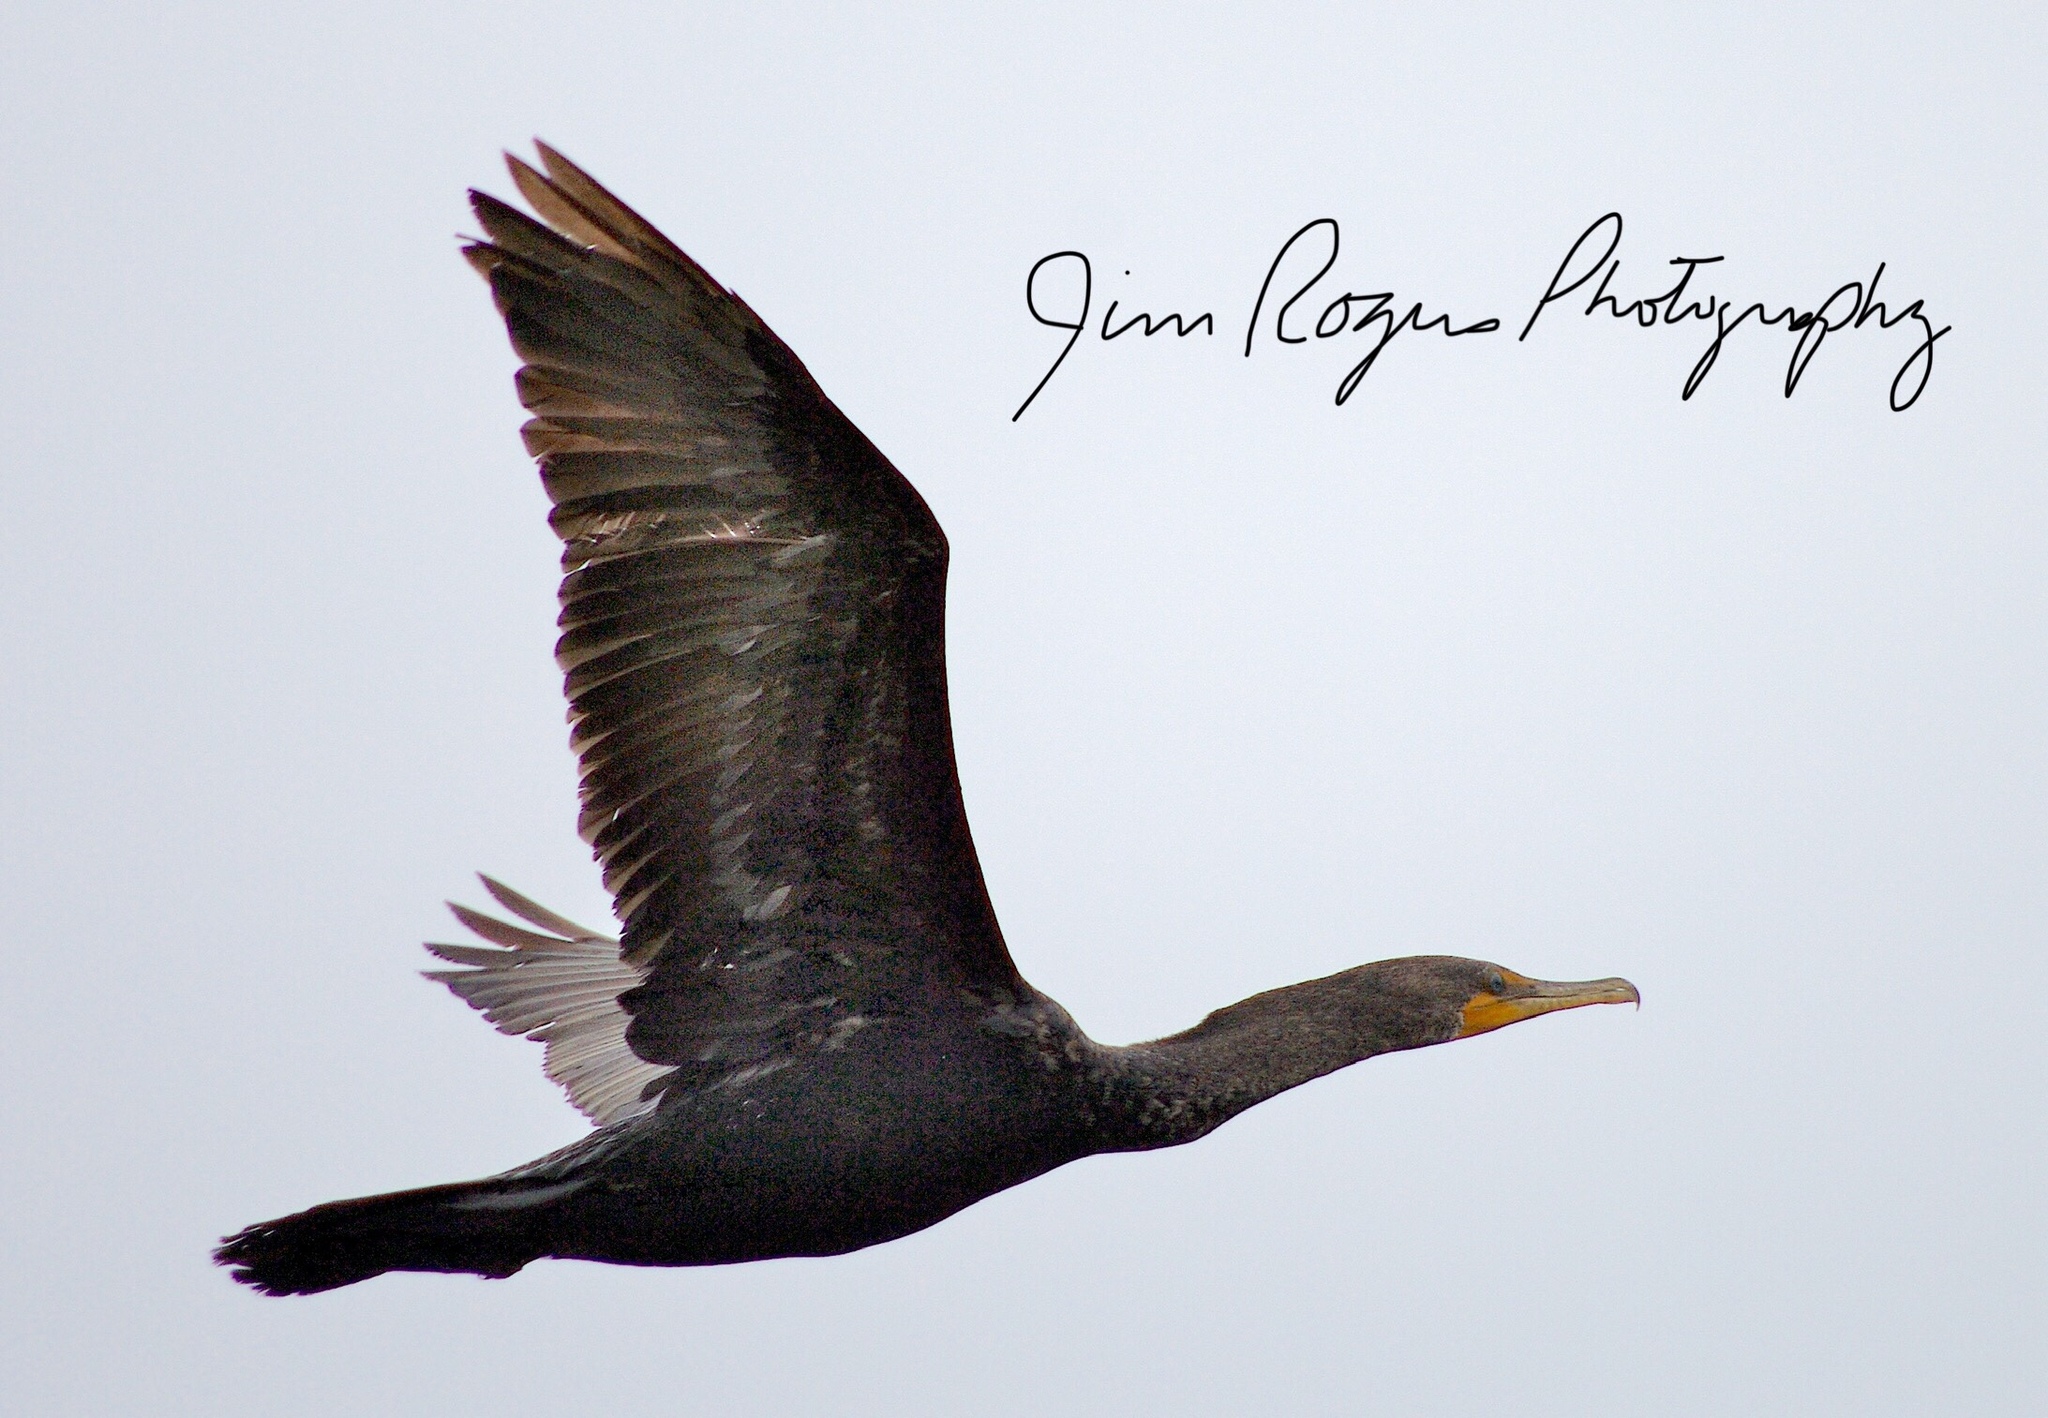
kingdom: Animalia
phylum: Chordata
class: Aves
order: Suliformes
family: Phalacrocoracidae
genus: Phalacrocorax
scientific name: Phalacrocorax auritus
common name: Double-crested cormorant
